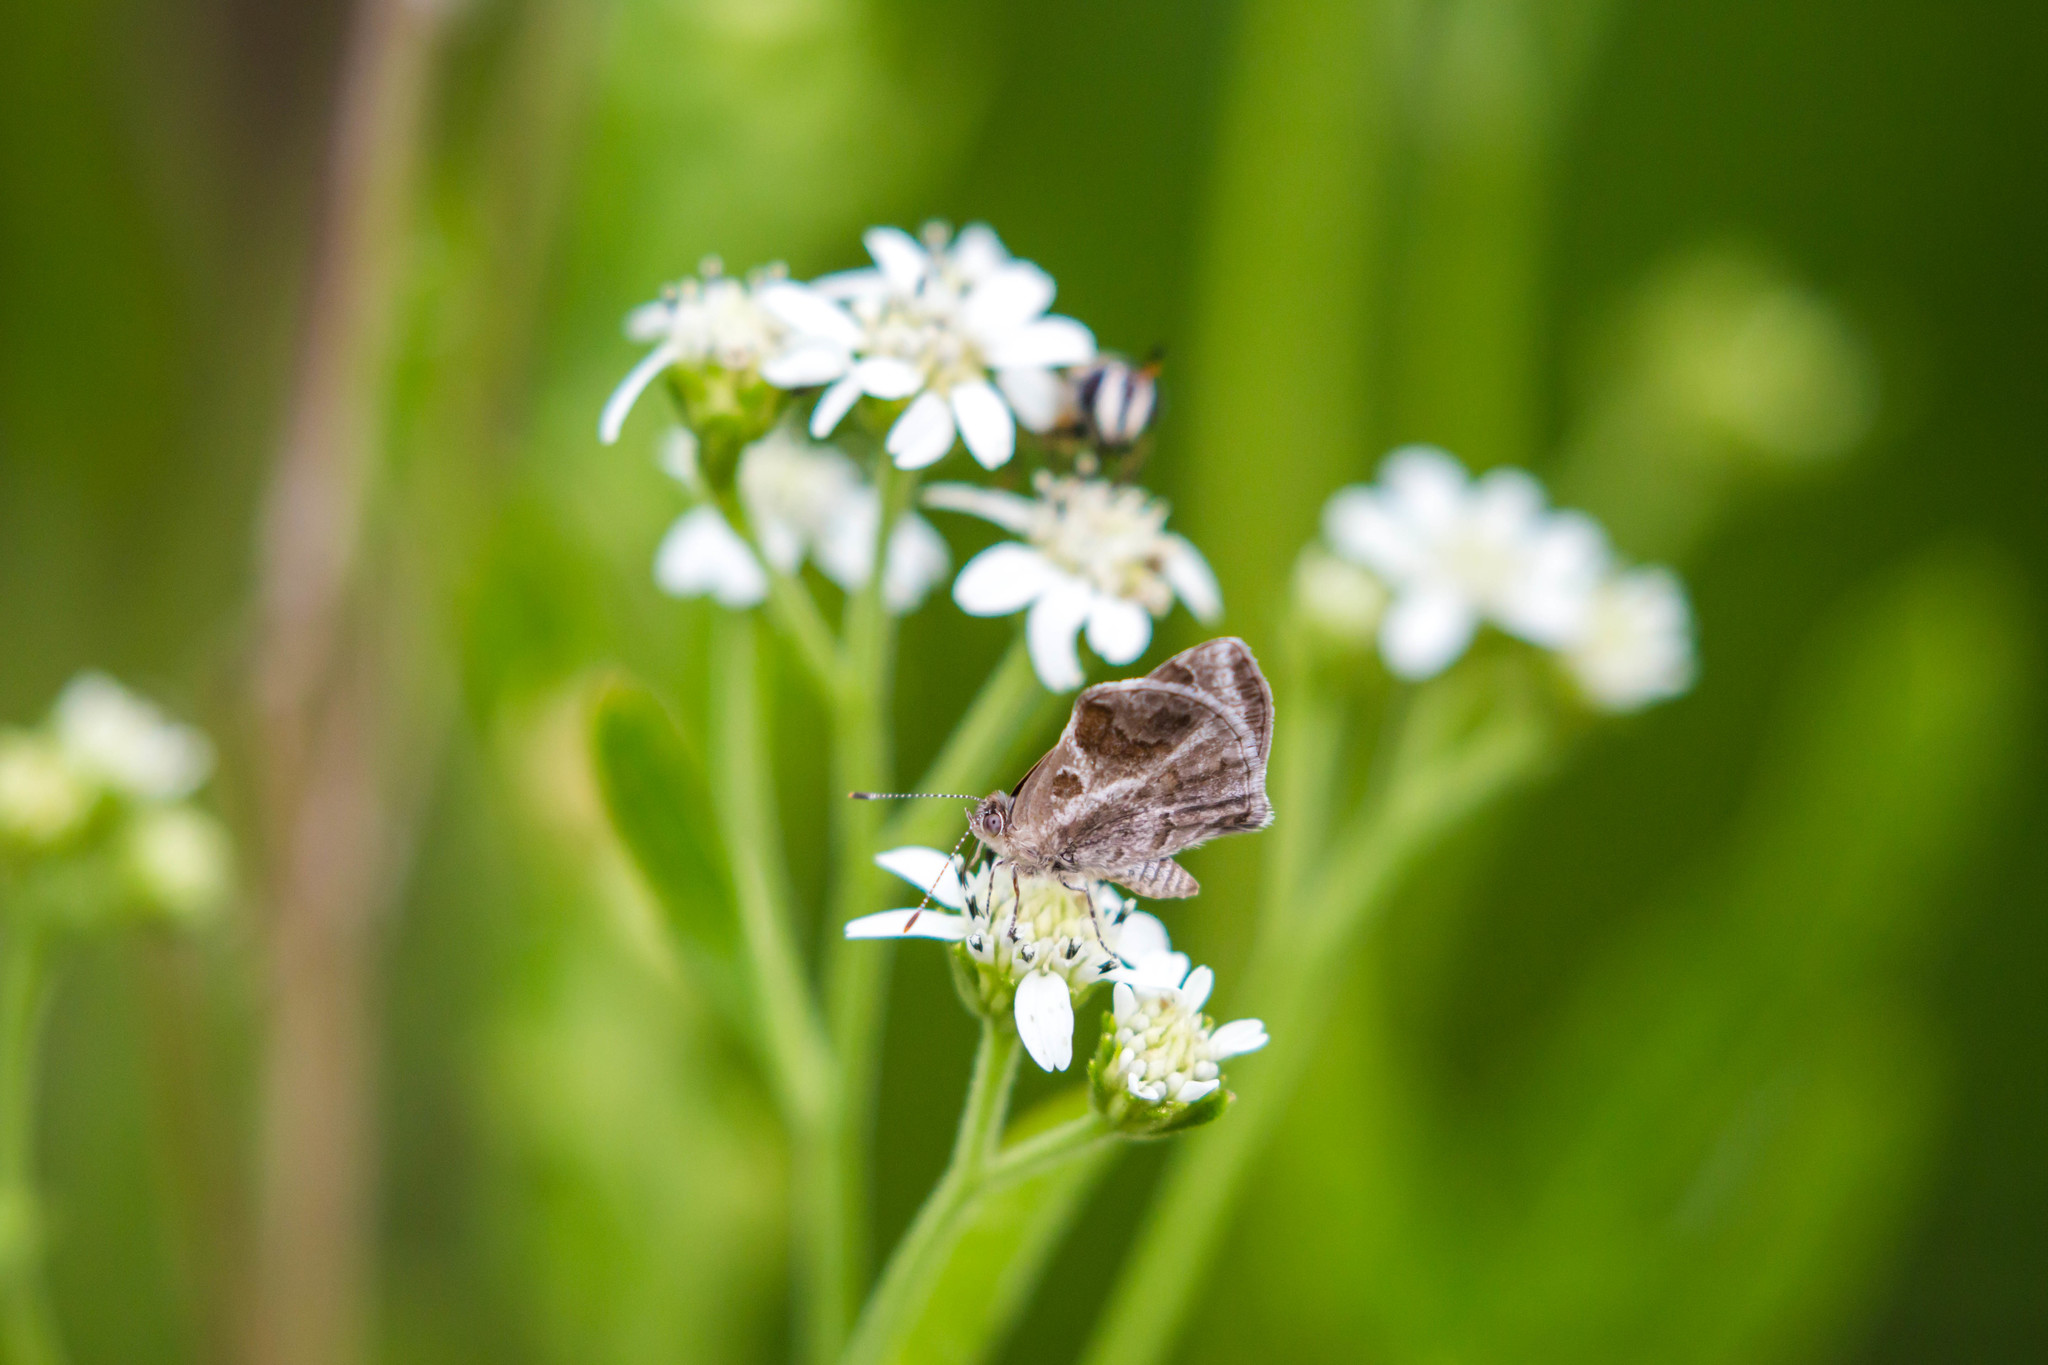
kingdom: Animalia
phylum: Arthropoda
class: Insecta
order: Lepidoptera
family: Lycaenidae
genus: Strymon
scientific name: Strymon bazochii
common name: Lantana scrub-hairstreak
